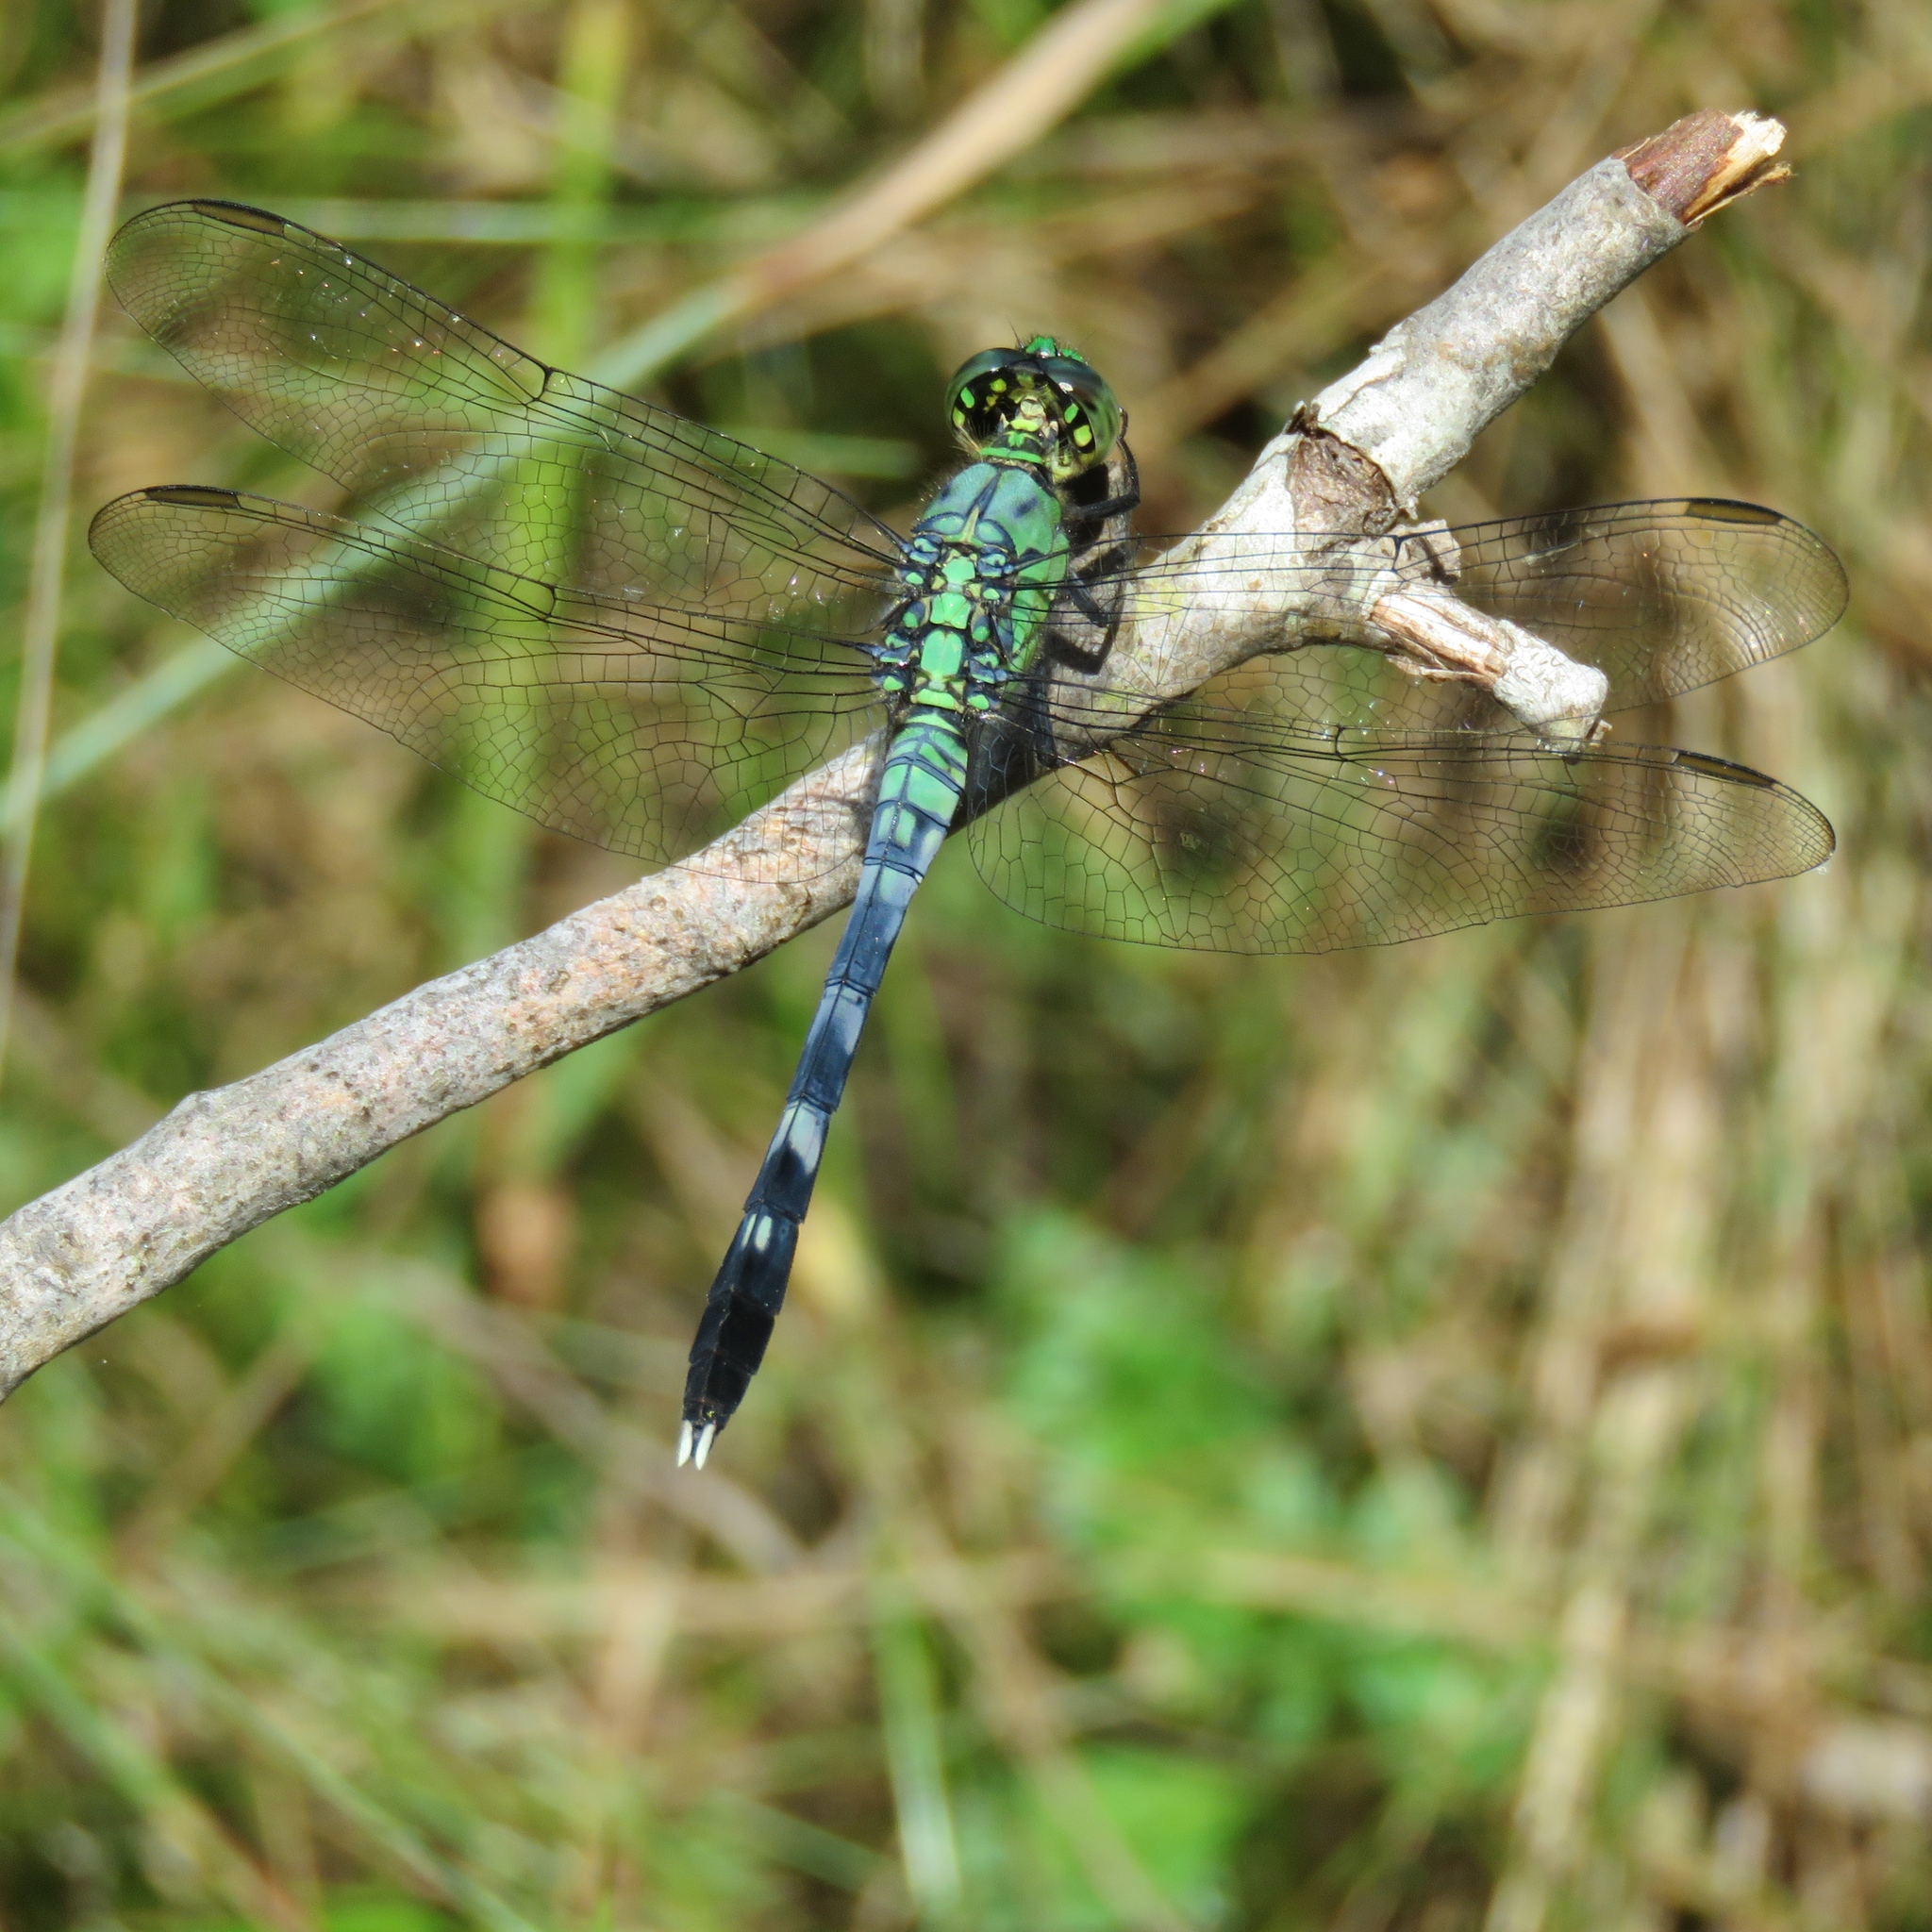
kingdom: Animalia
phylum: Arthropoda
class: Insecta
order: Odonata
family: Libellulidae
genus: Erythemis
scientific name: Erythemis simplicicollis
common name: Eastern pondhawk
